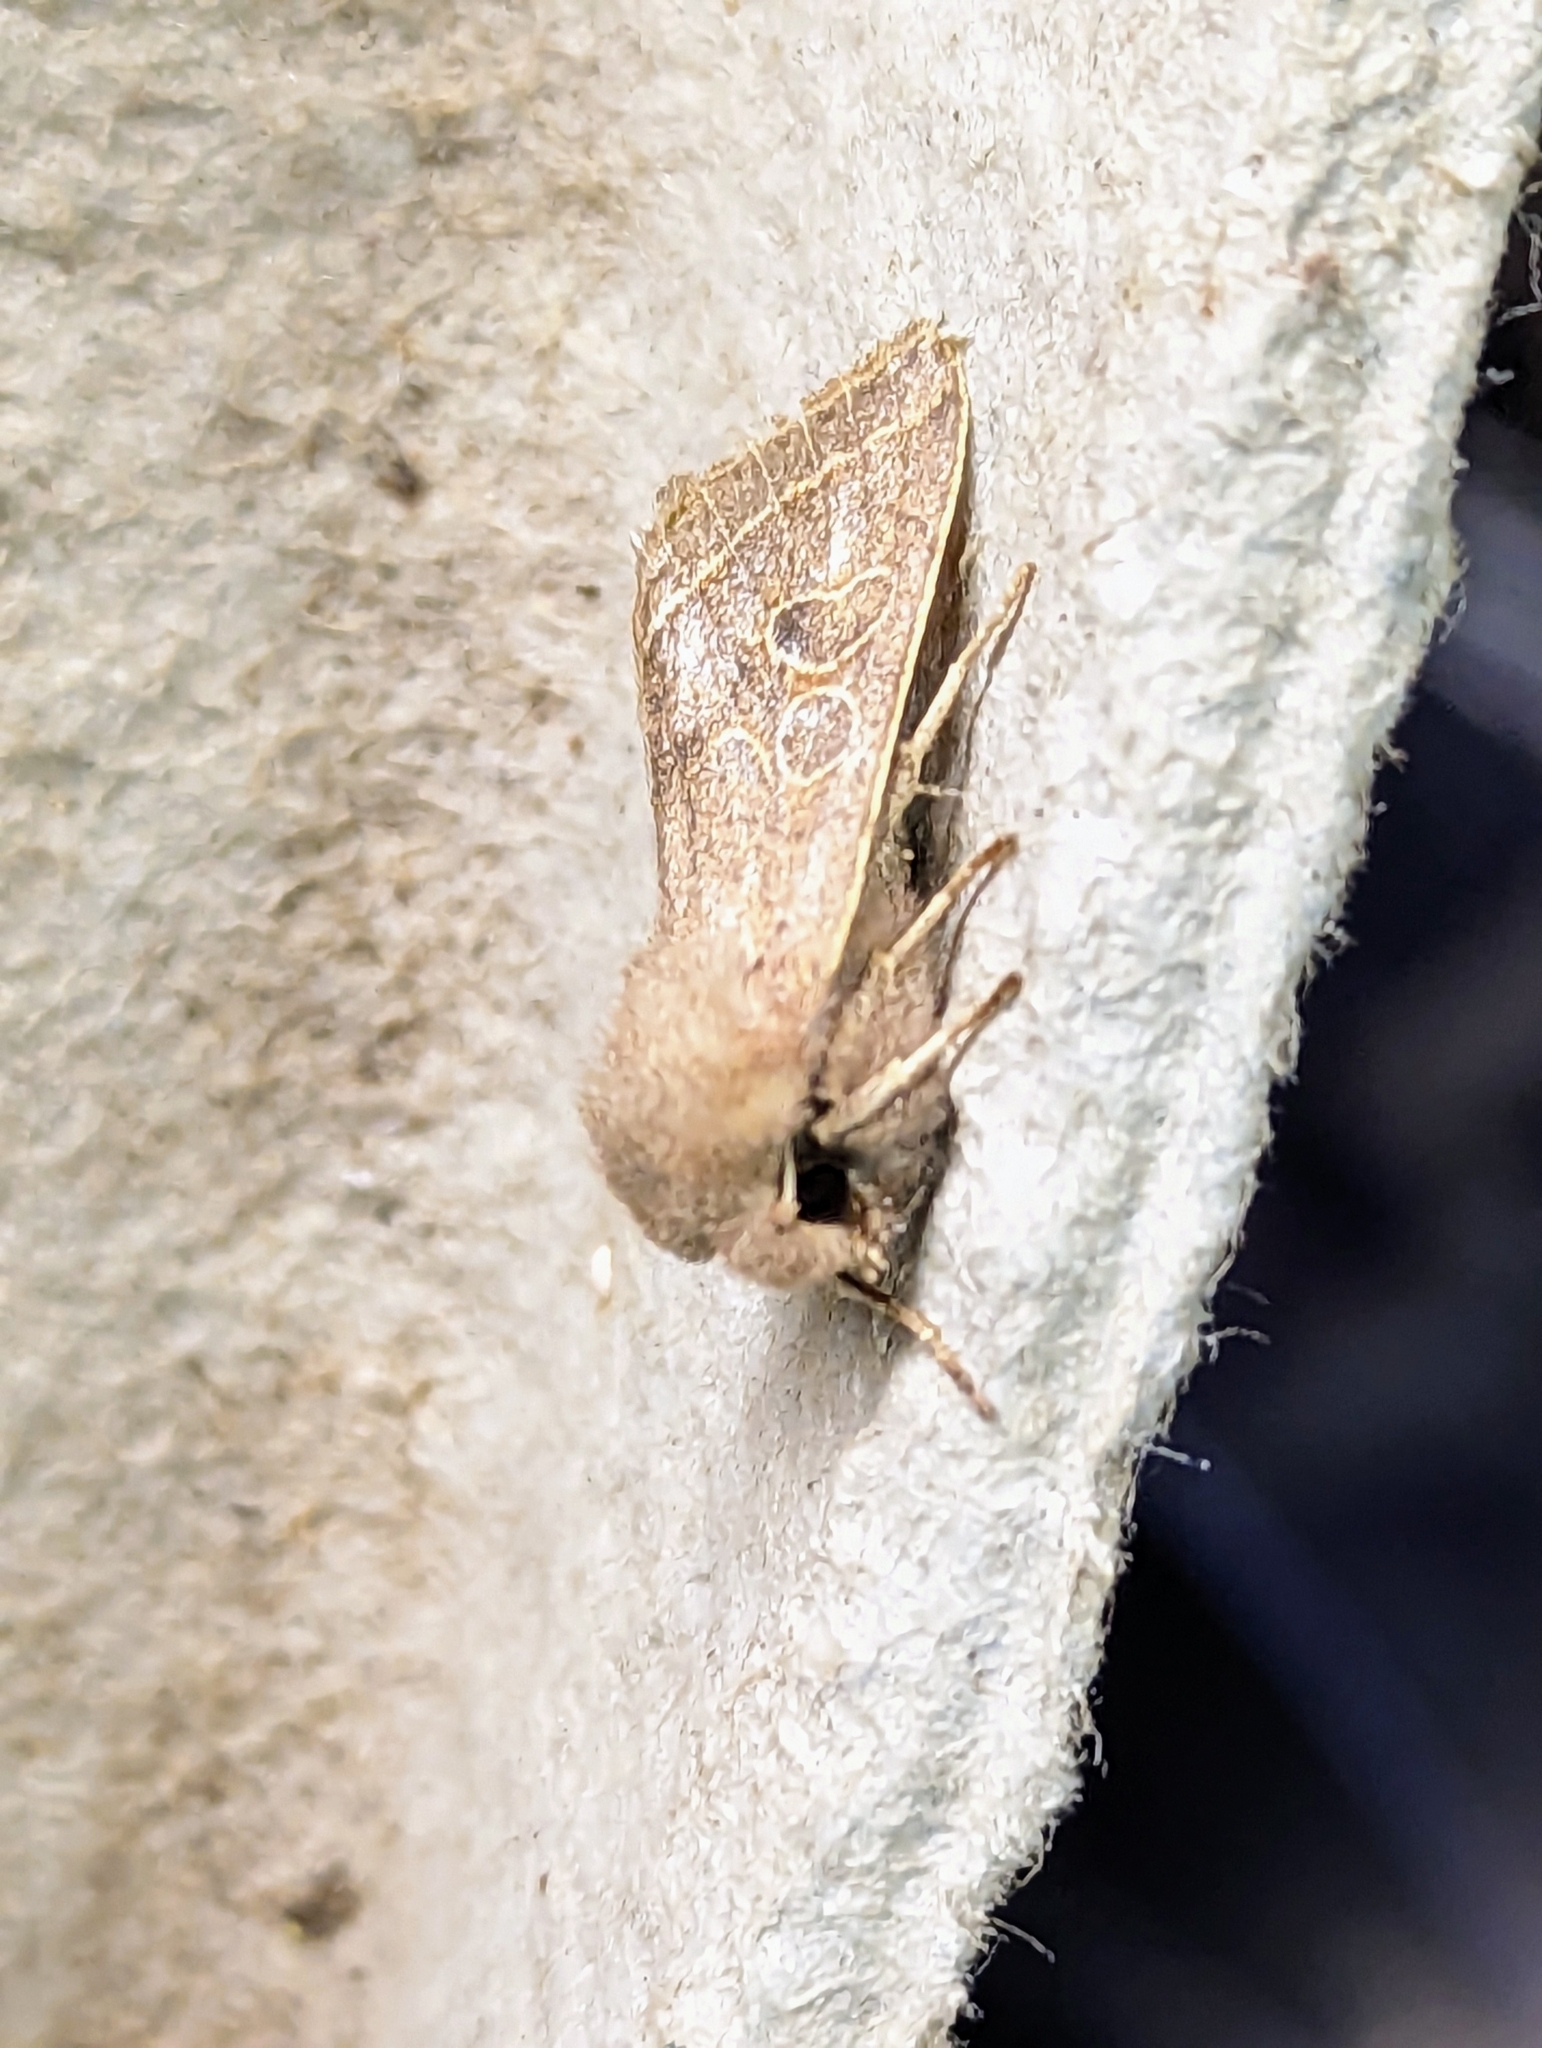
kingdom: Animalia
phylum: Arthropoda
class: Insecta
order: Lepidoptera
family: Noctuidae
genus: Orthosia
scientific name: Orthosia cerasi
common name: Common quaker
